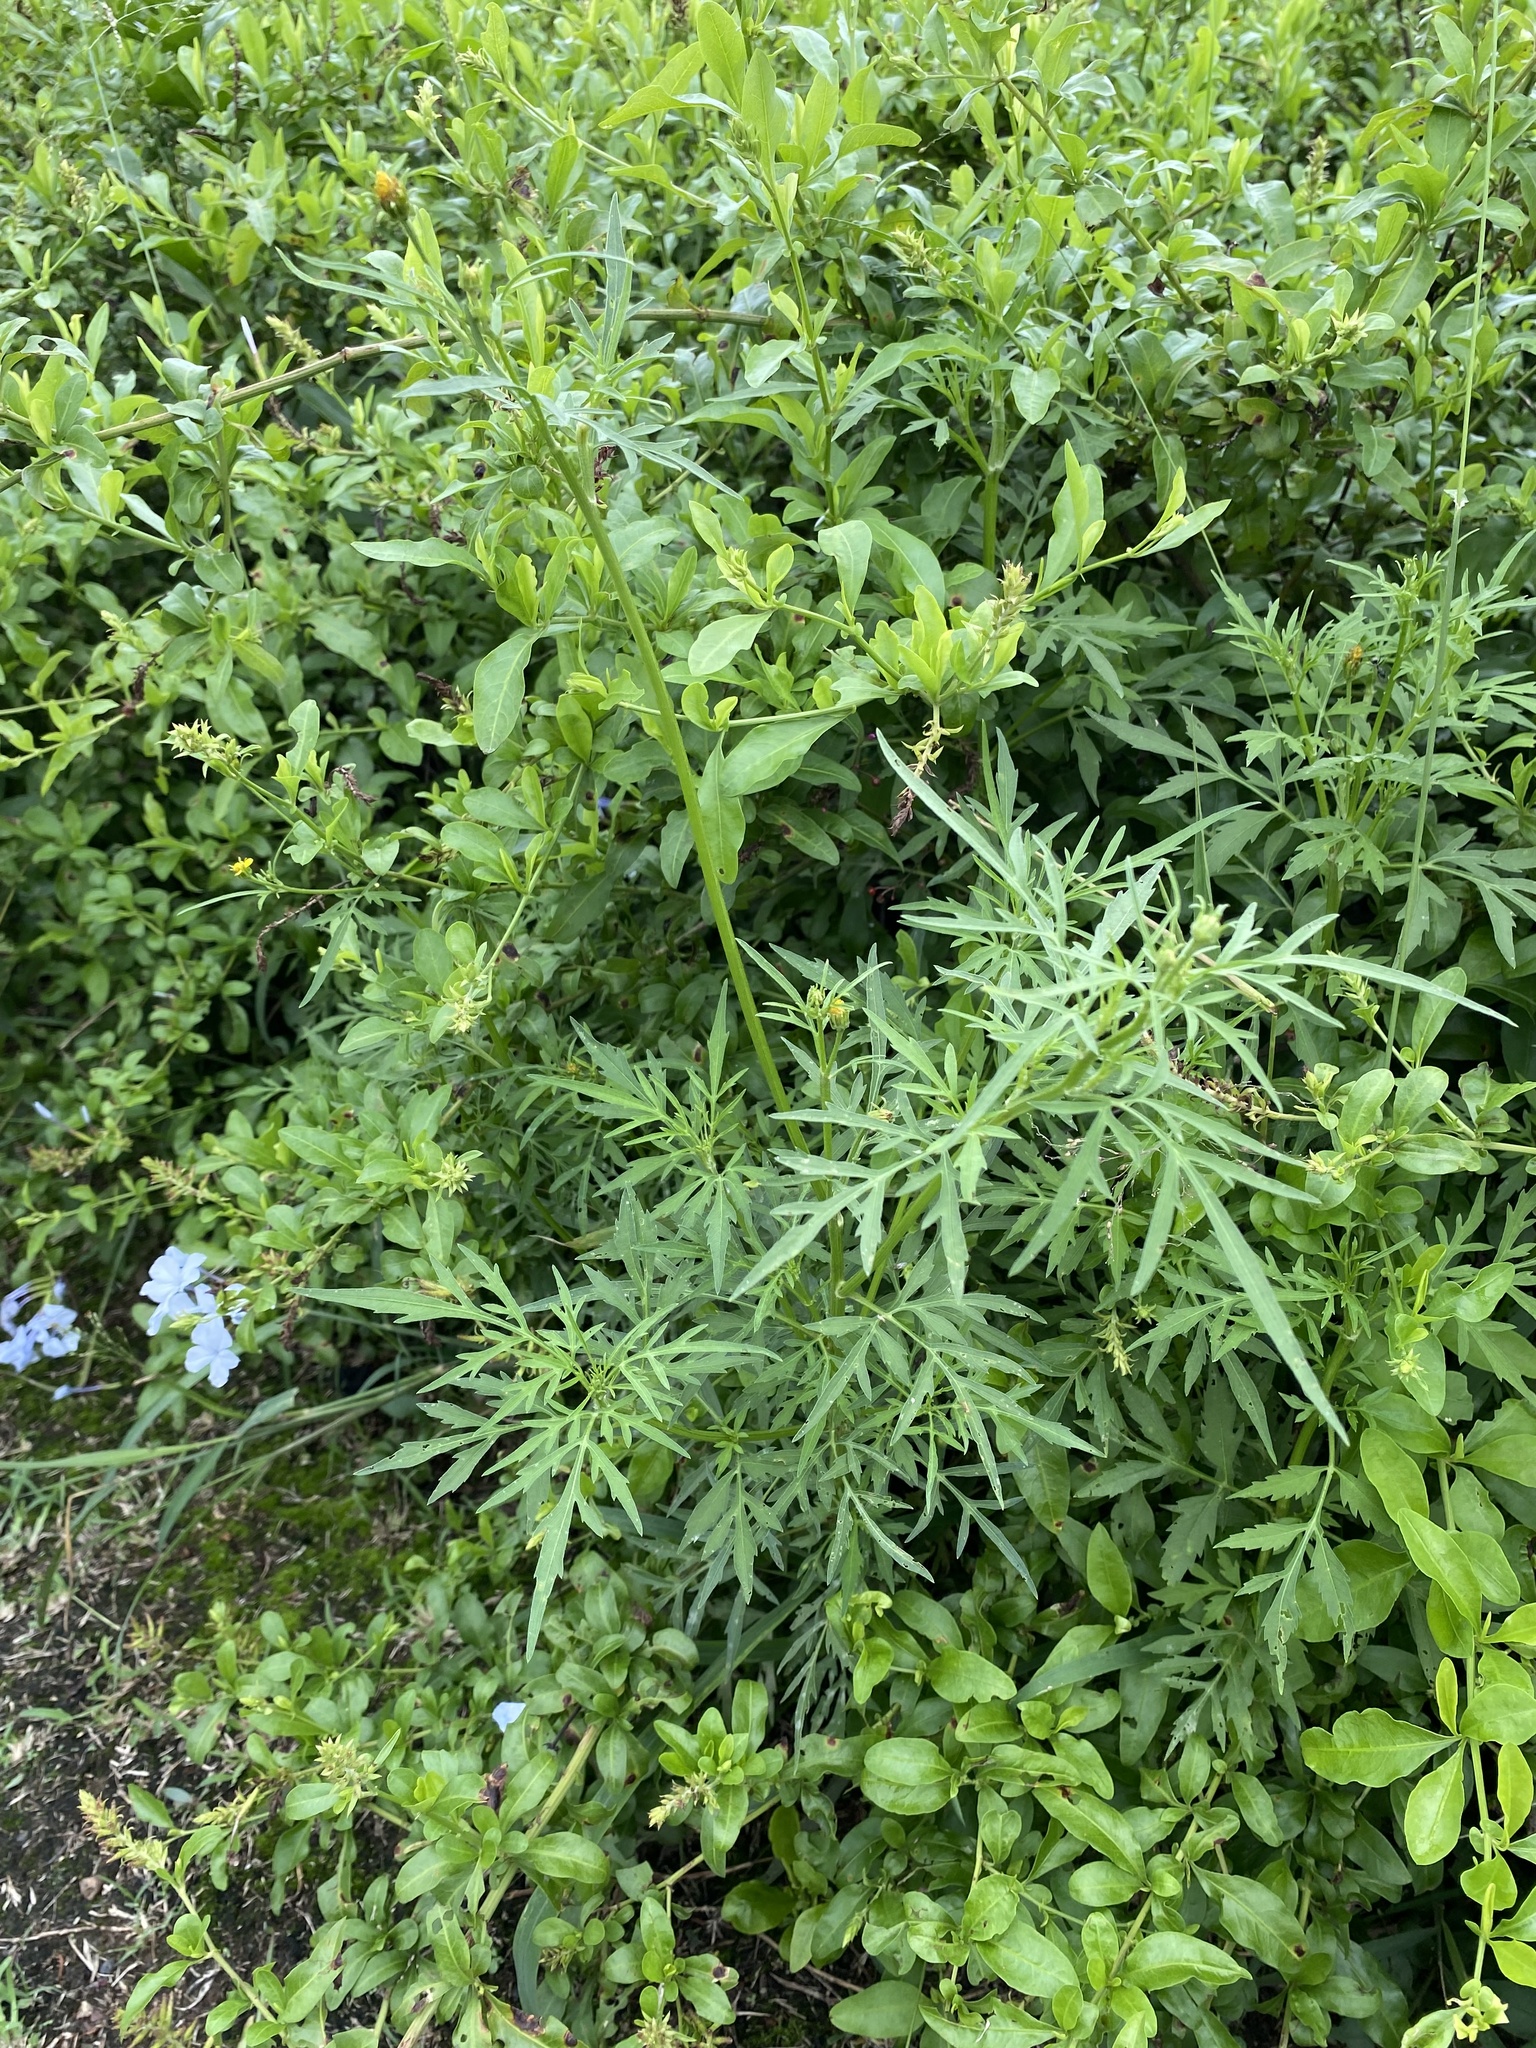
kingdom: Plantae
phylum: Tracheophyta
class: Magnoliopsida
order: Asterales
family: Asteraceae
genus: Bidens
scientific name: Bidens pilosa
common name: Black-jack
